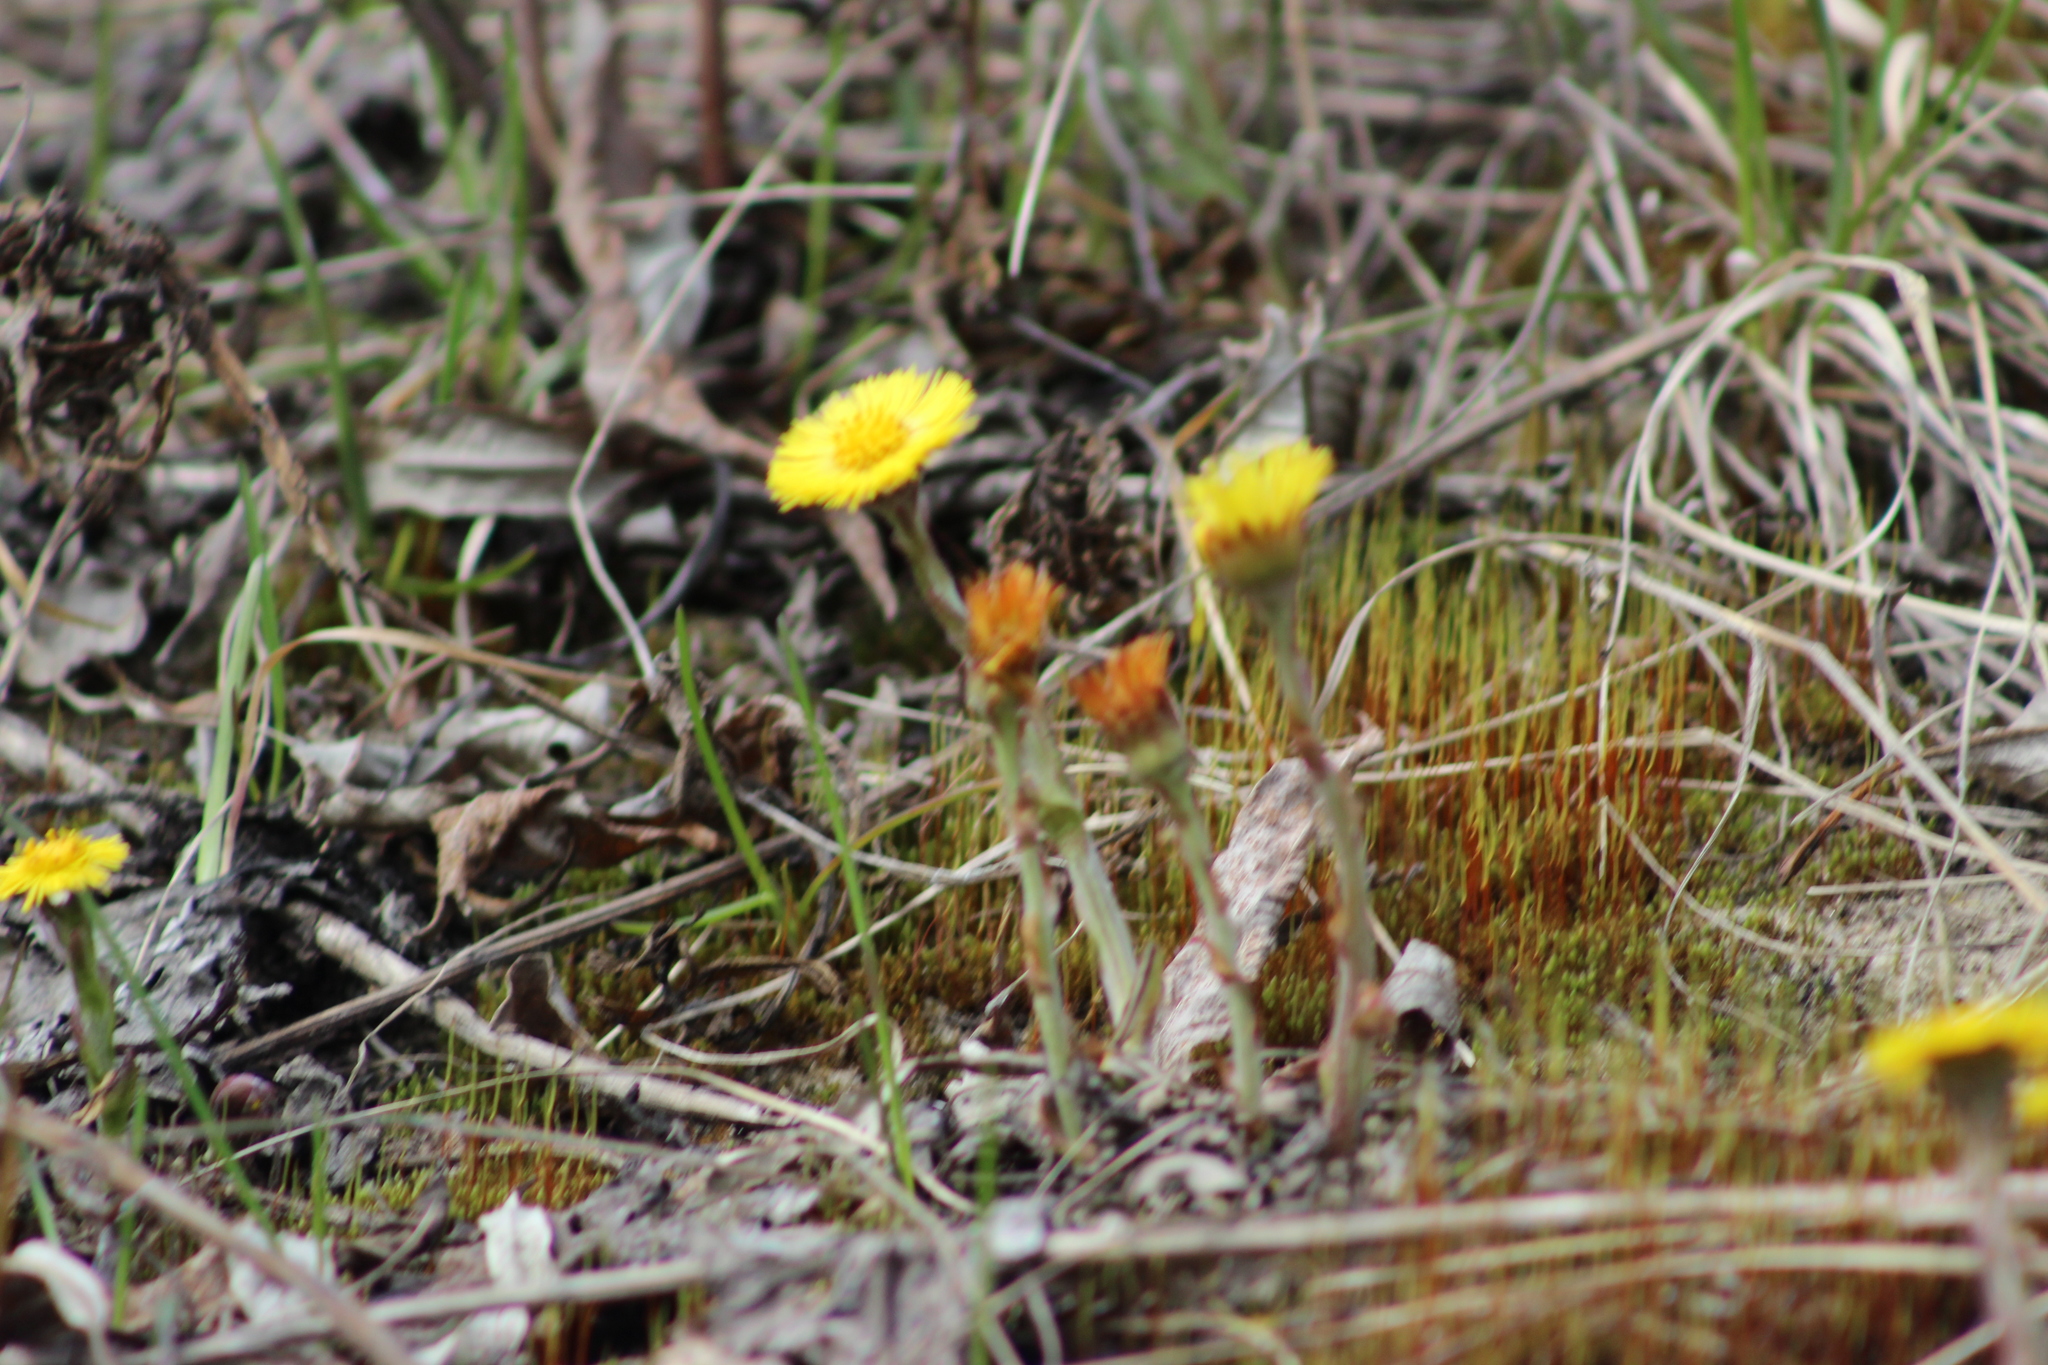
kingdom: Plantae
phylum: Tracheophyta
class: Magnoliopsida
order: Asterales
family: Asteraceae
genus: Tussilago
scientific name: Tussilago farfara
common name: Coltsfoot
